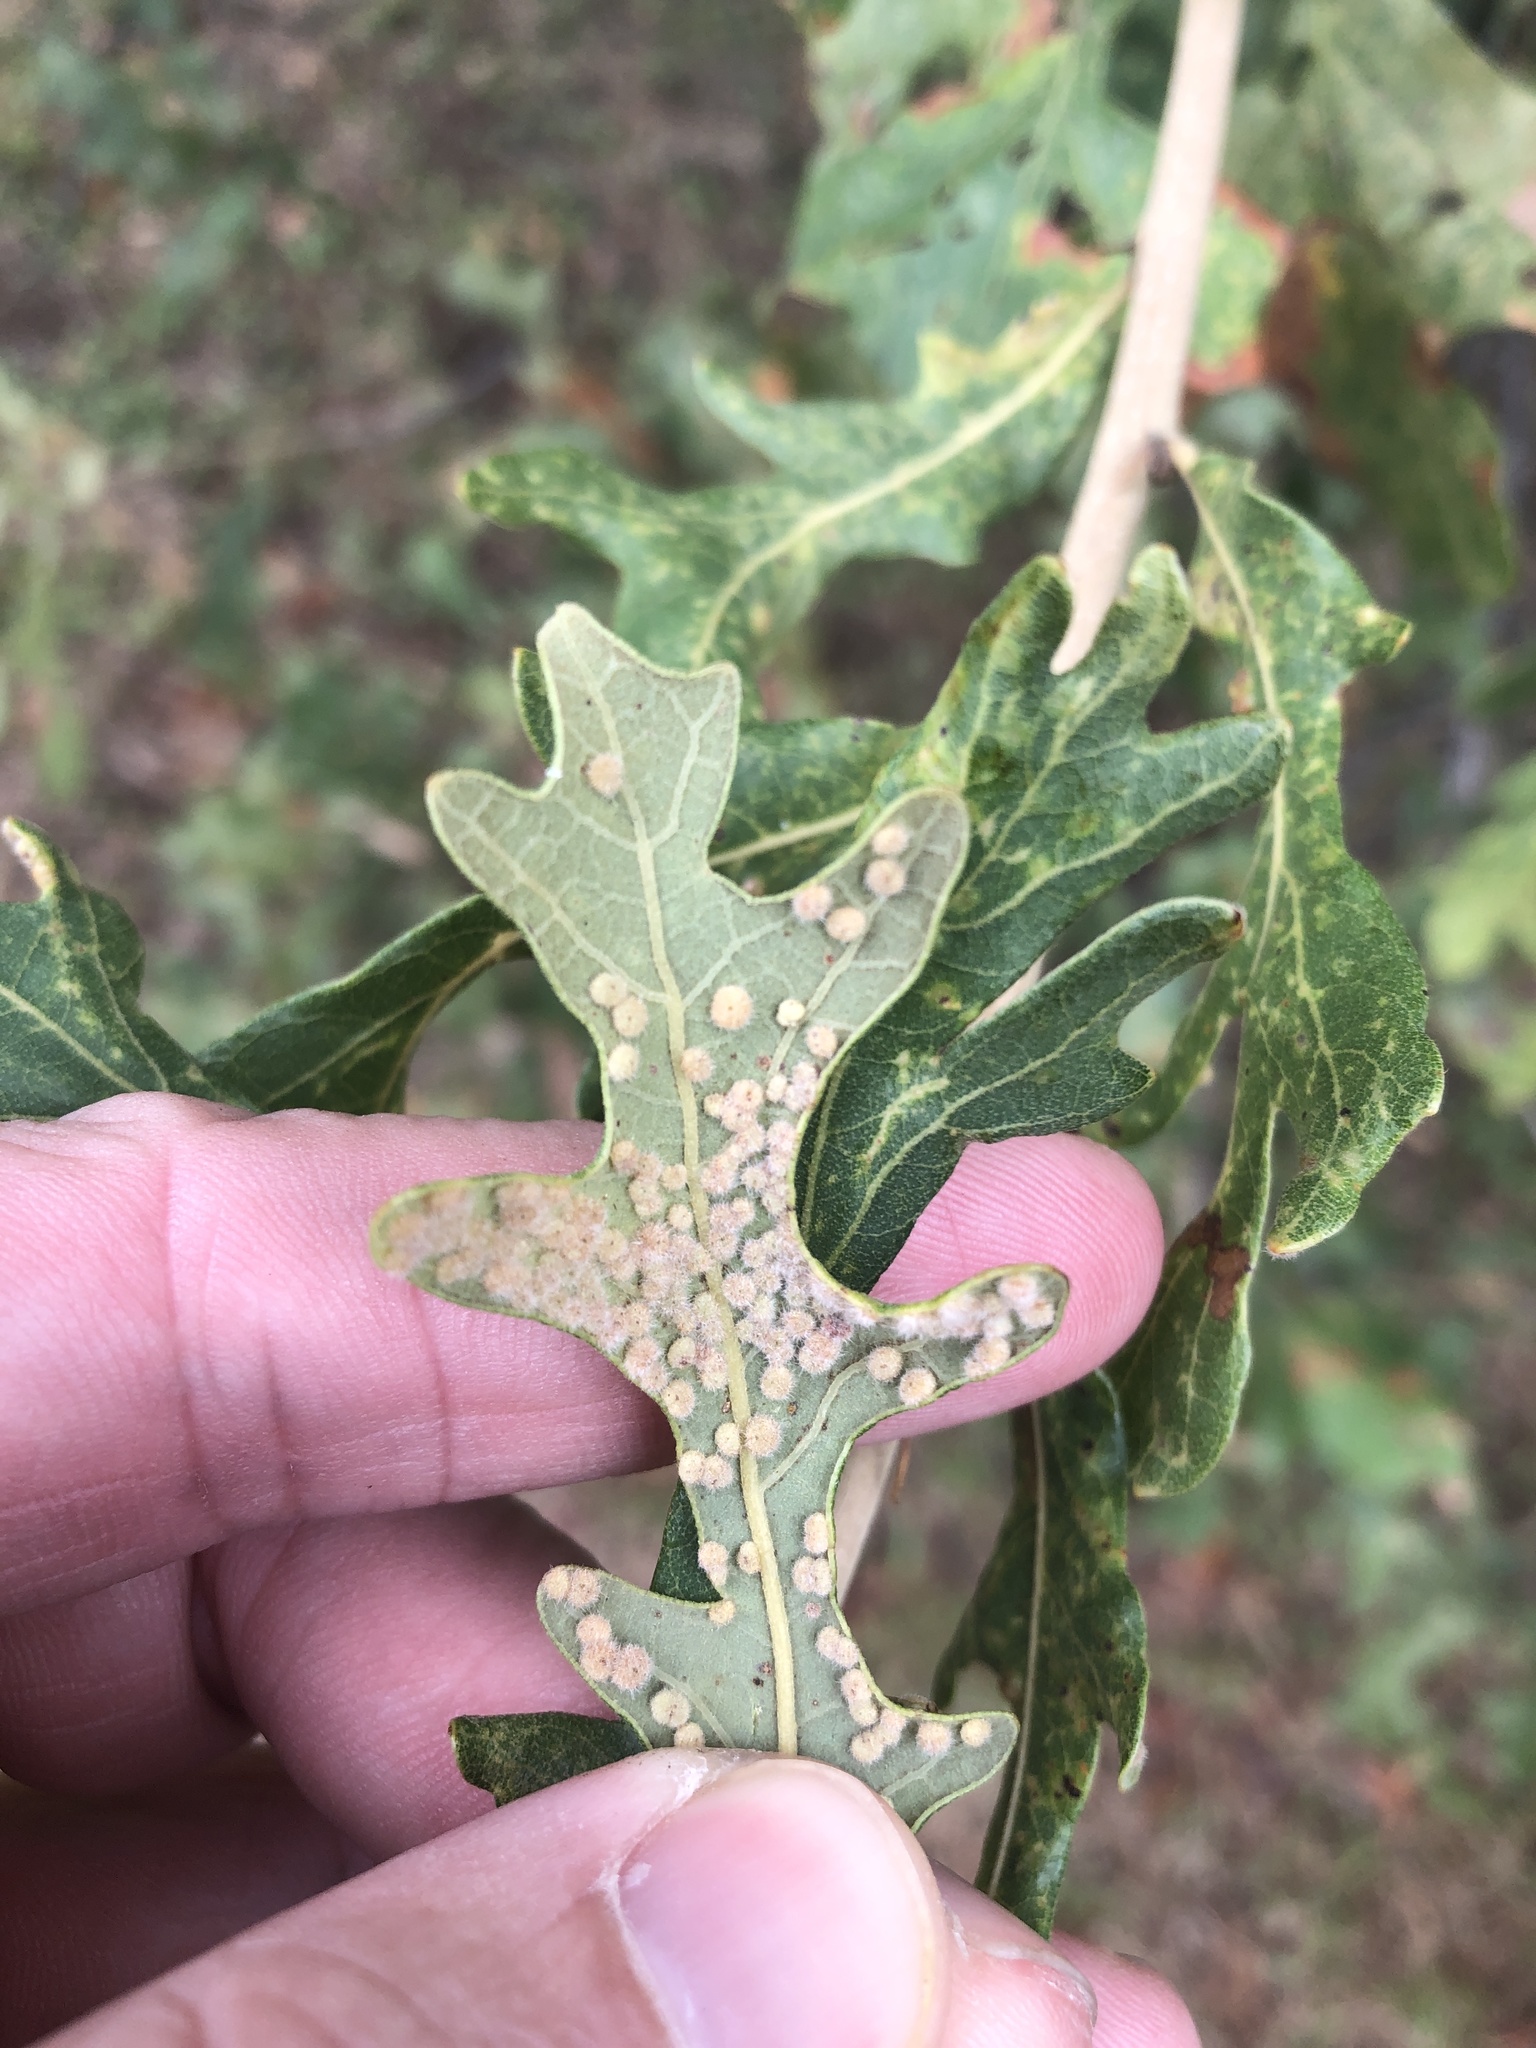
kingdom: Animalia
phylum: Arthropoda
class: Insecta
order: Hymenoptera
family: Cynipidae
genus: Neuroterus
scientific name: Neuroterus quercusverrucarum
